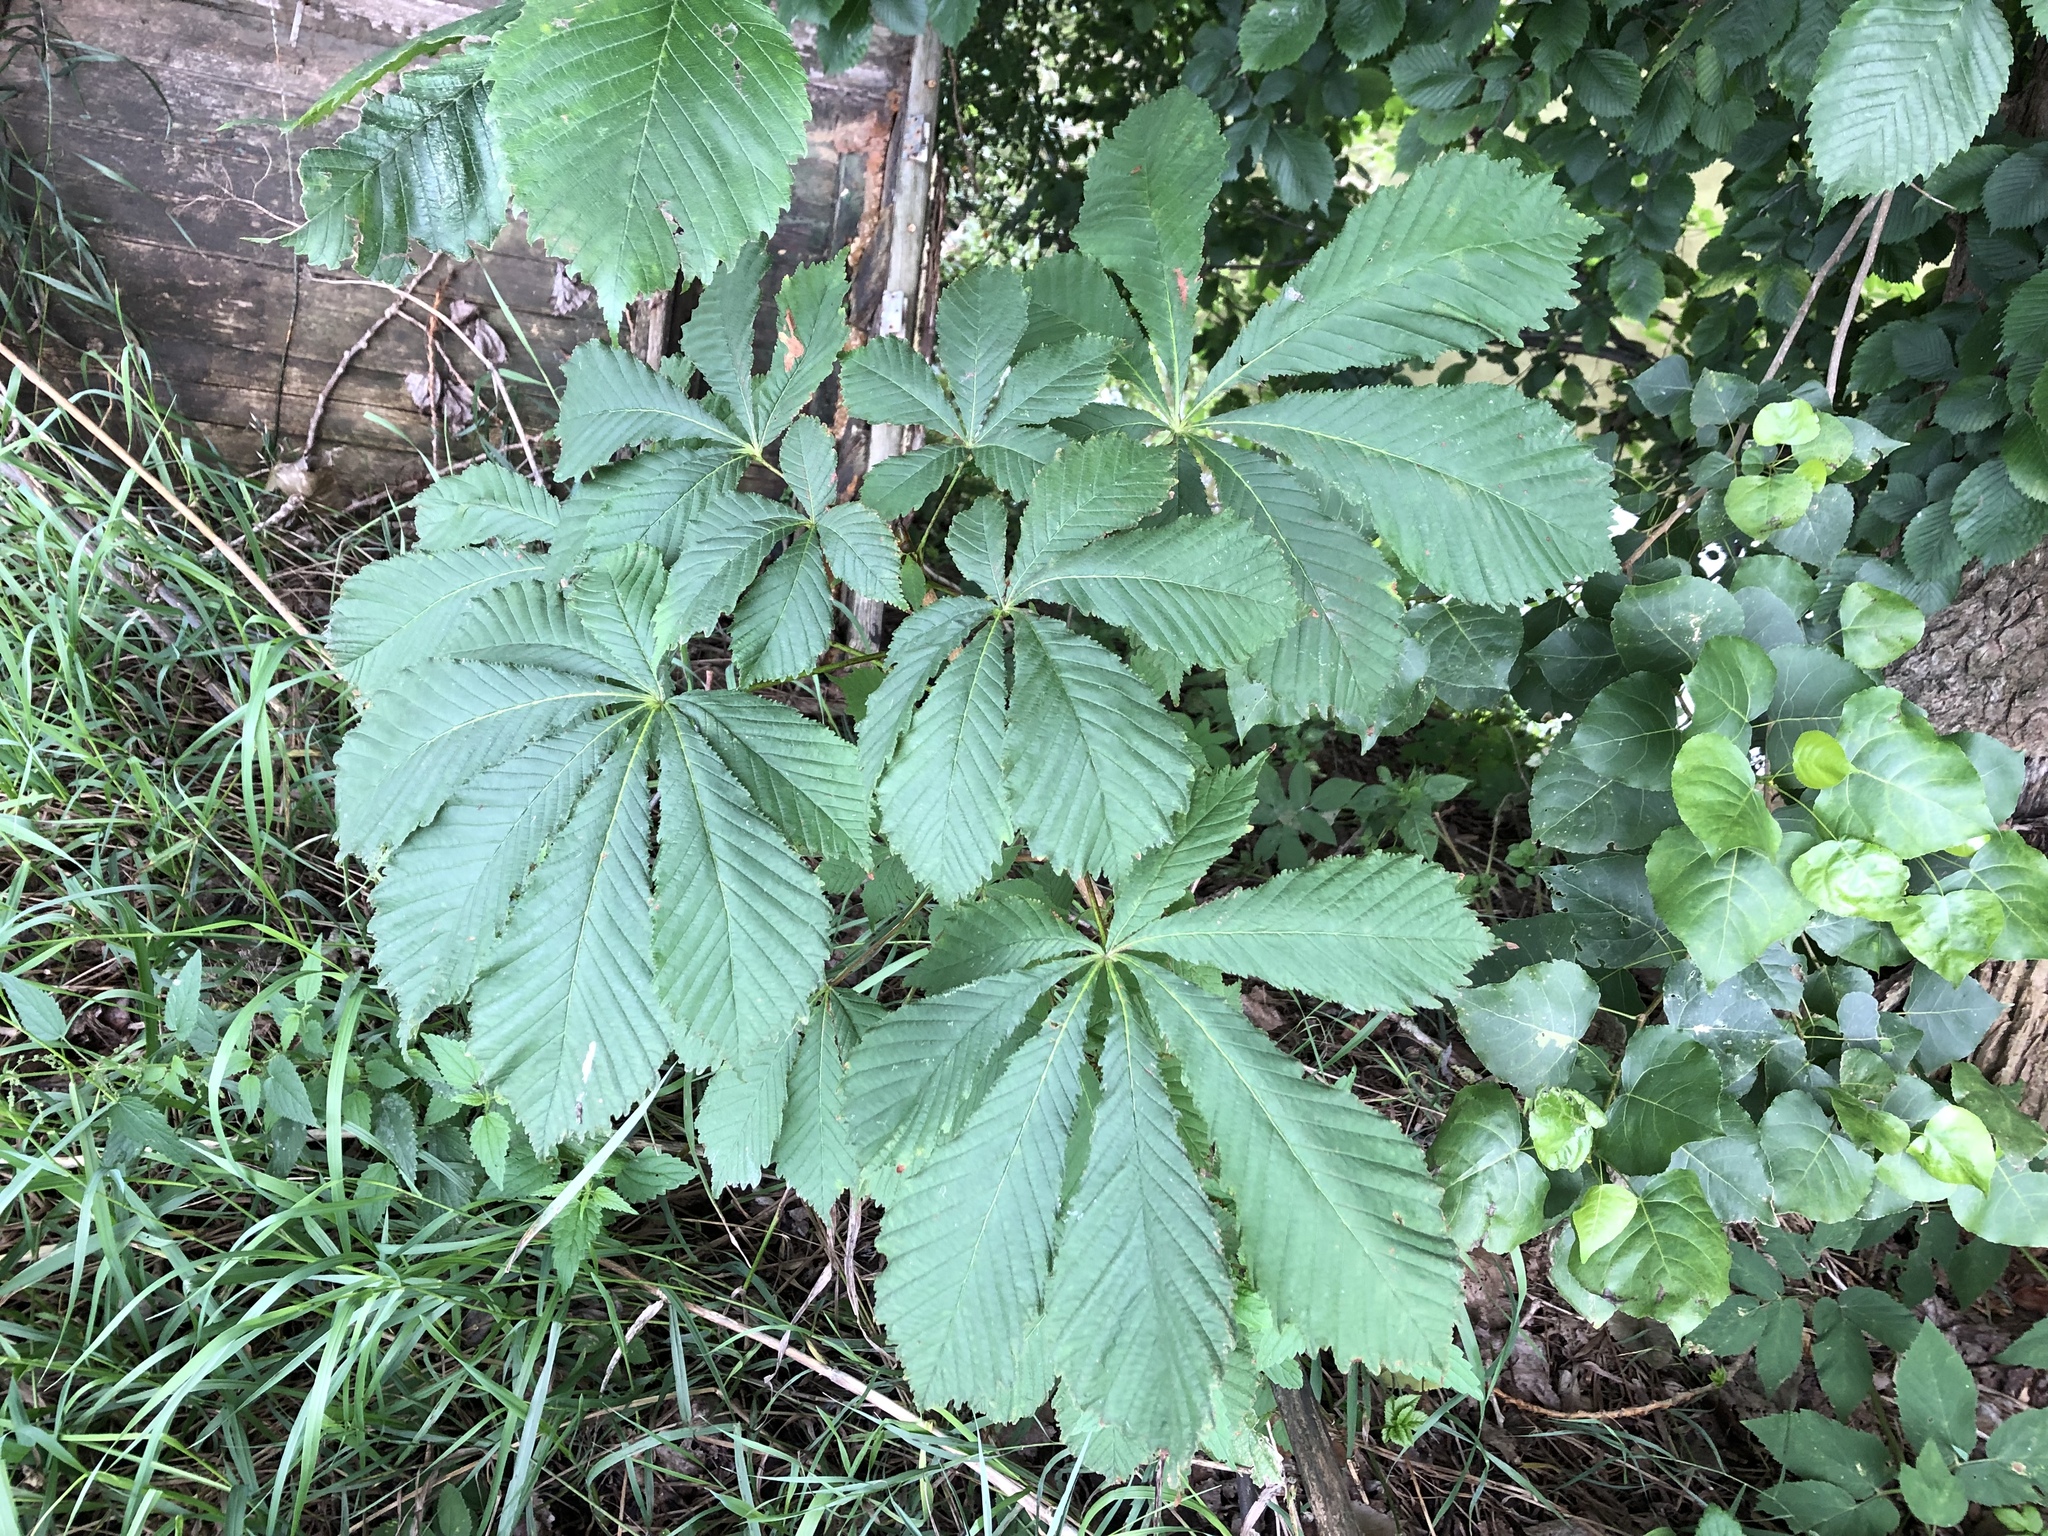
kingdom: Plantae
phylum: Tracheophyta
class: Magnoliopsida
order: Sapindales
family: Sapindaceae
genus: Aesculus
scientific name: Aesculus hippocastanum
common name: Horse-chestnut
